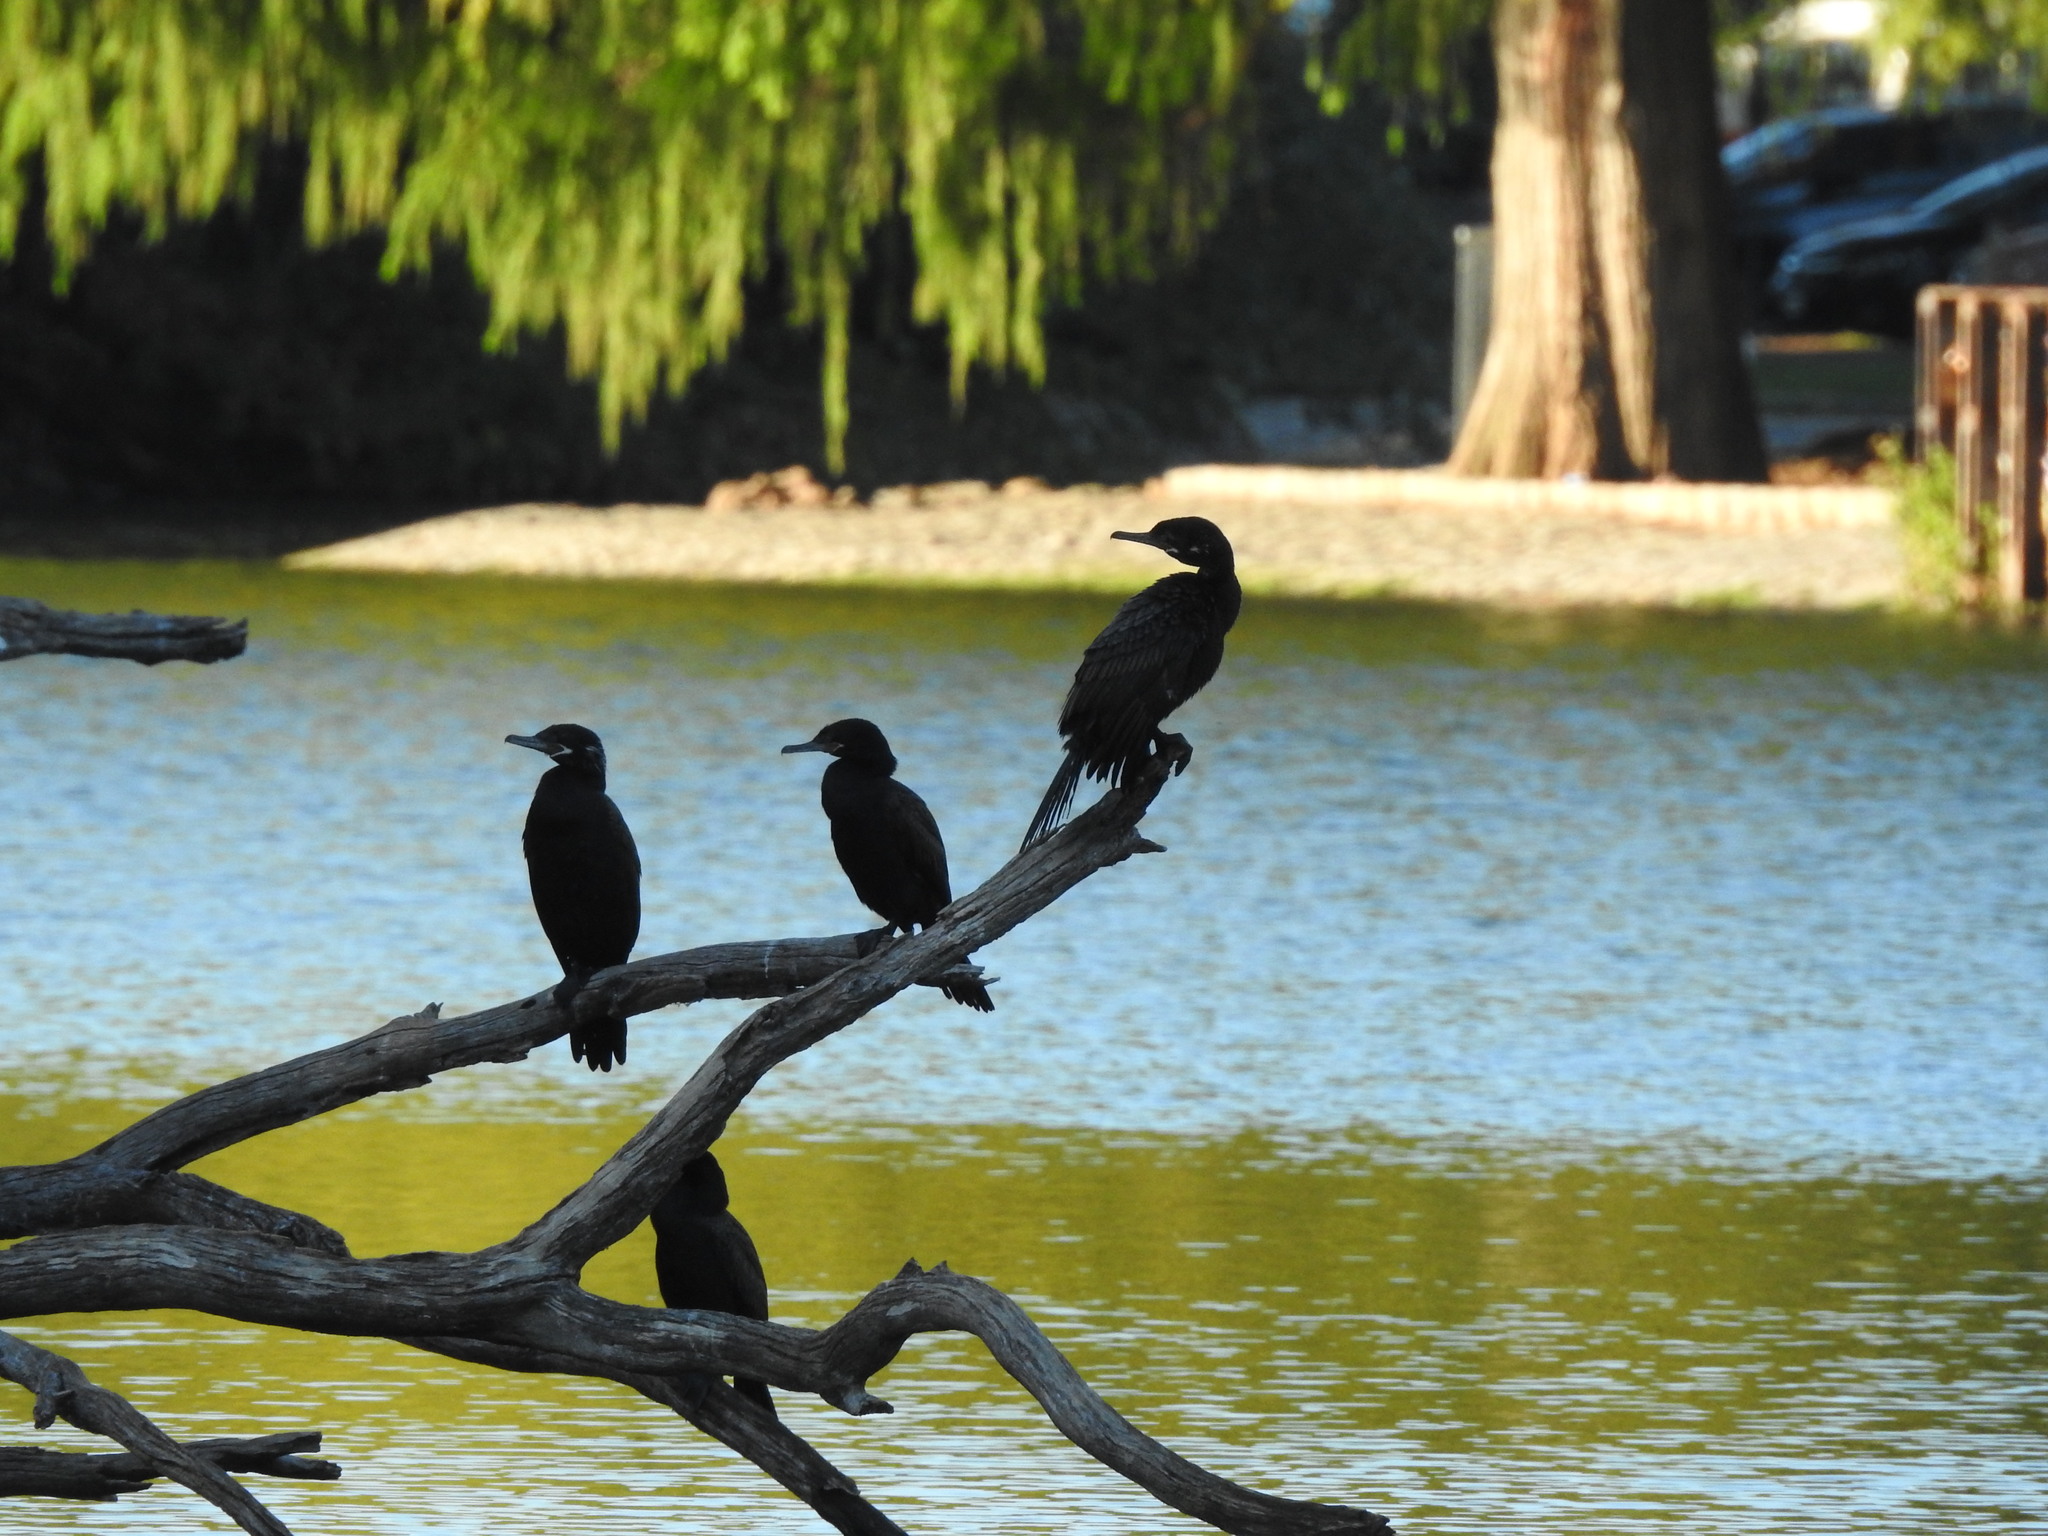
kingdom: Animalia
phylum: Chordata
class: Aves
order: Suliformes
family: Phalacrocoracidae
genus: Phalacrocorax
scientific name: Phalacrocorax brasilianus
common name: Neotropic cormorant
